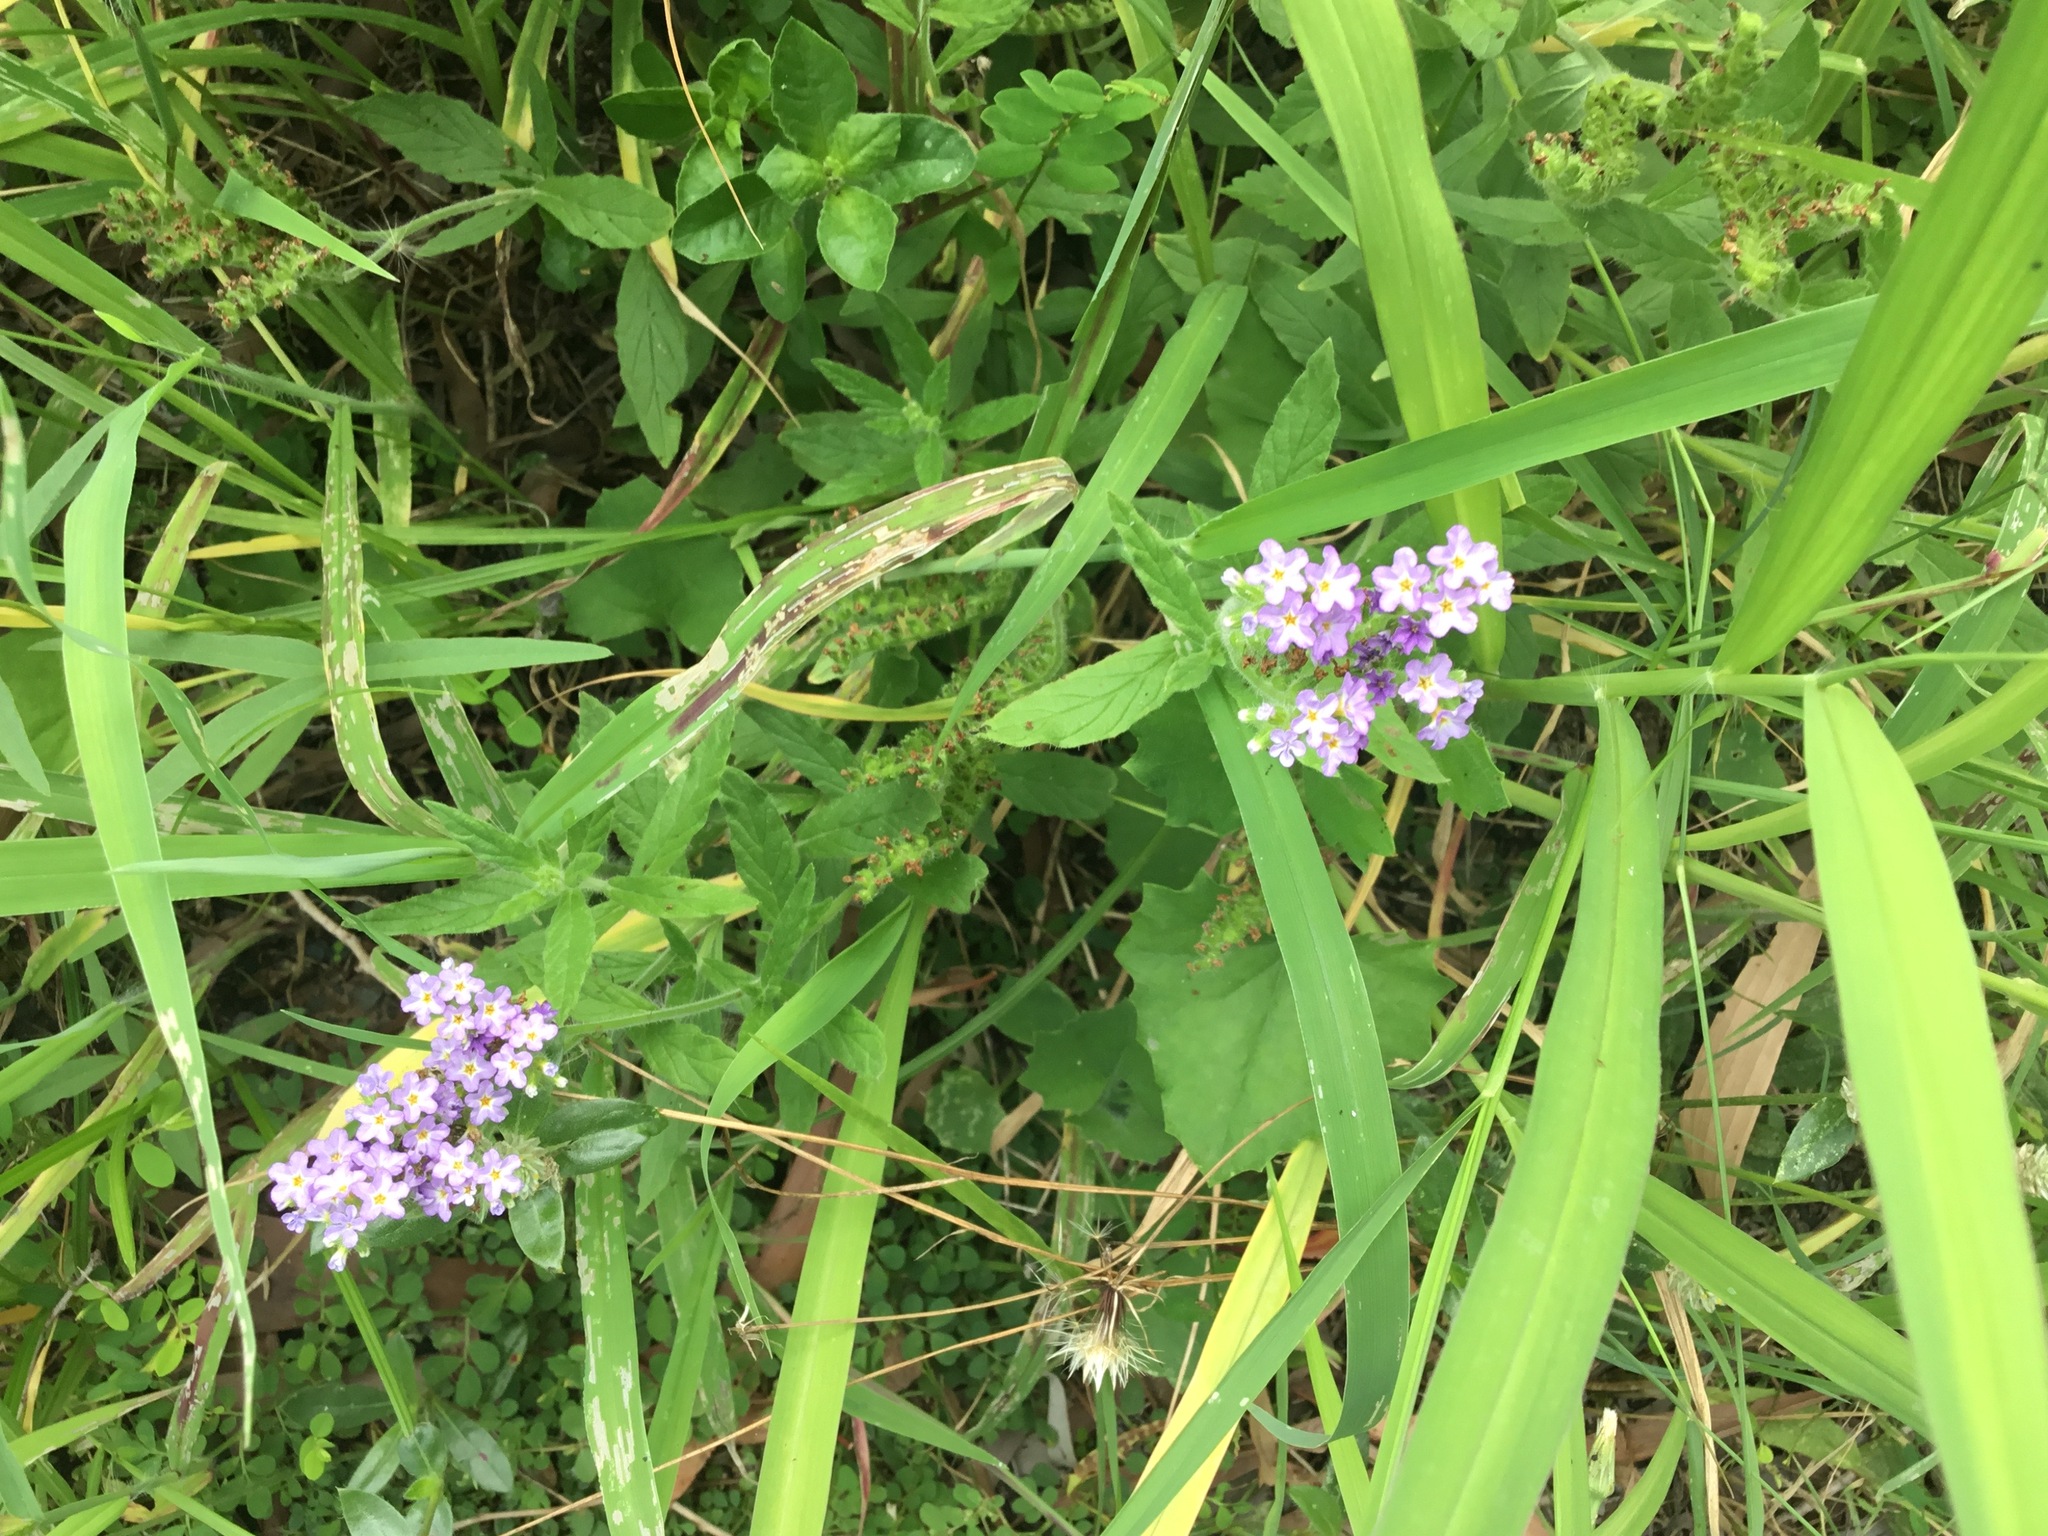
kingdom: Plantae
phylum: Tracheophyta
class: Magnoliopsida
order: Boraginales
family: Heliotropiaceae
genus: Heliotropium
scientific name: Heliotropium amplexicaule
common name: Clasping heliotrope
